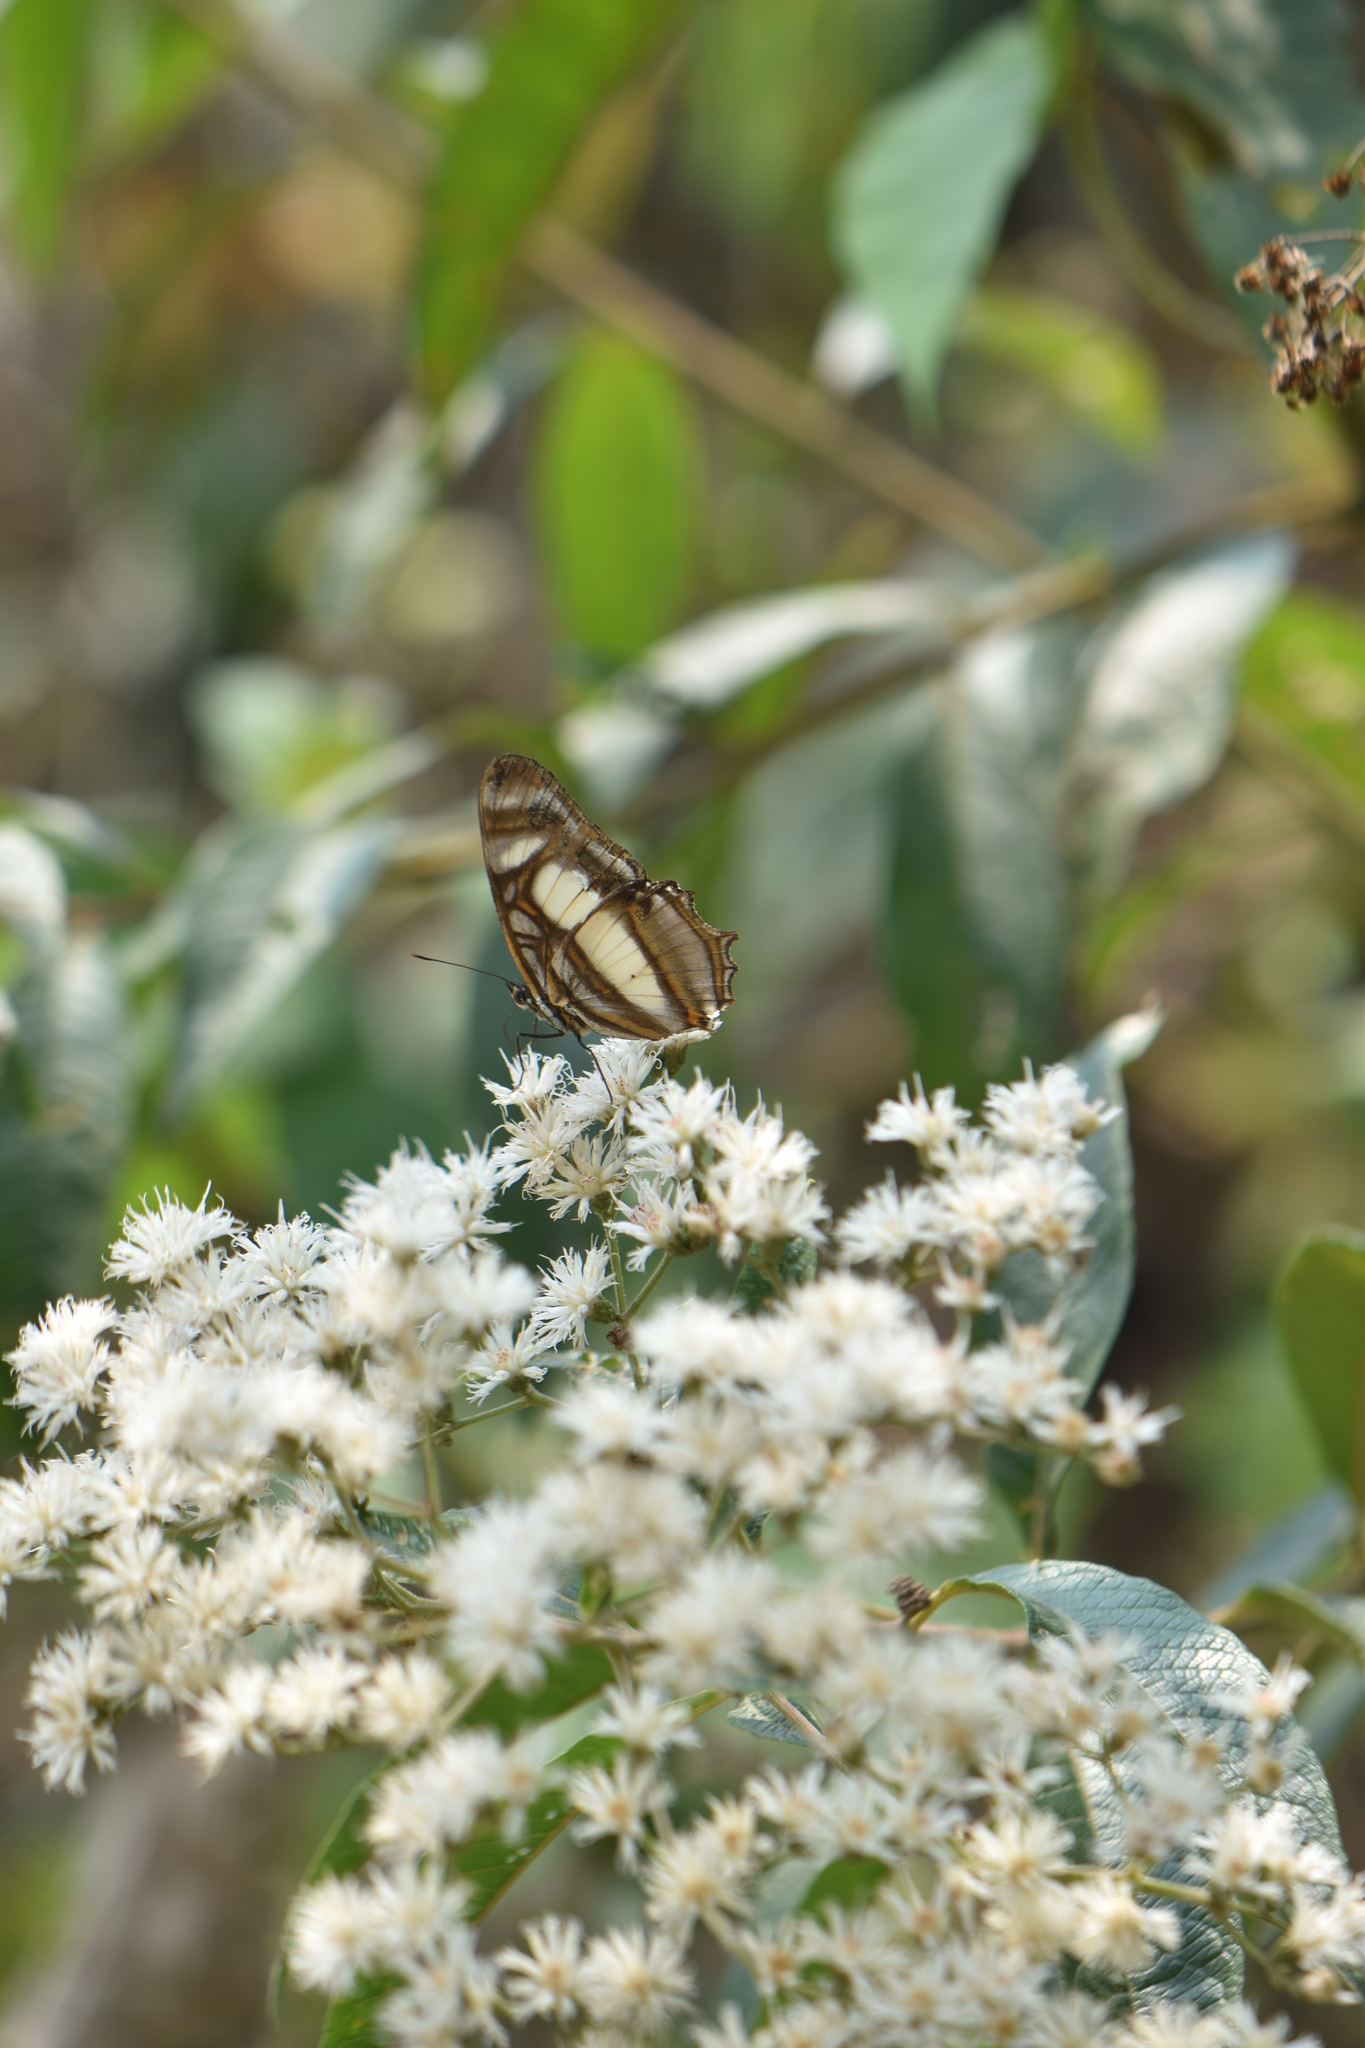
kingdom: Animalia
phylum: Arthropoda
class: Insecta
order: Lepidoptera
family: Nymphalidae
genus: Metamorpha
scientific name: Metamorpha elissa
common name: Elissa page
